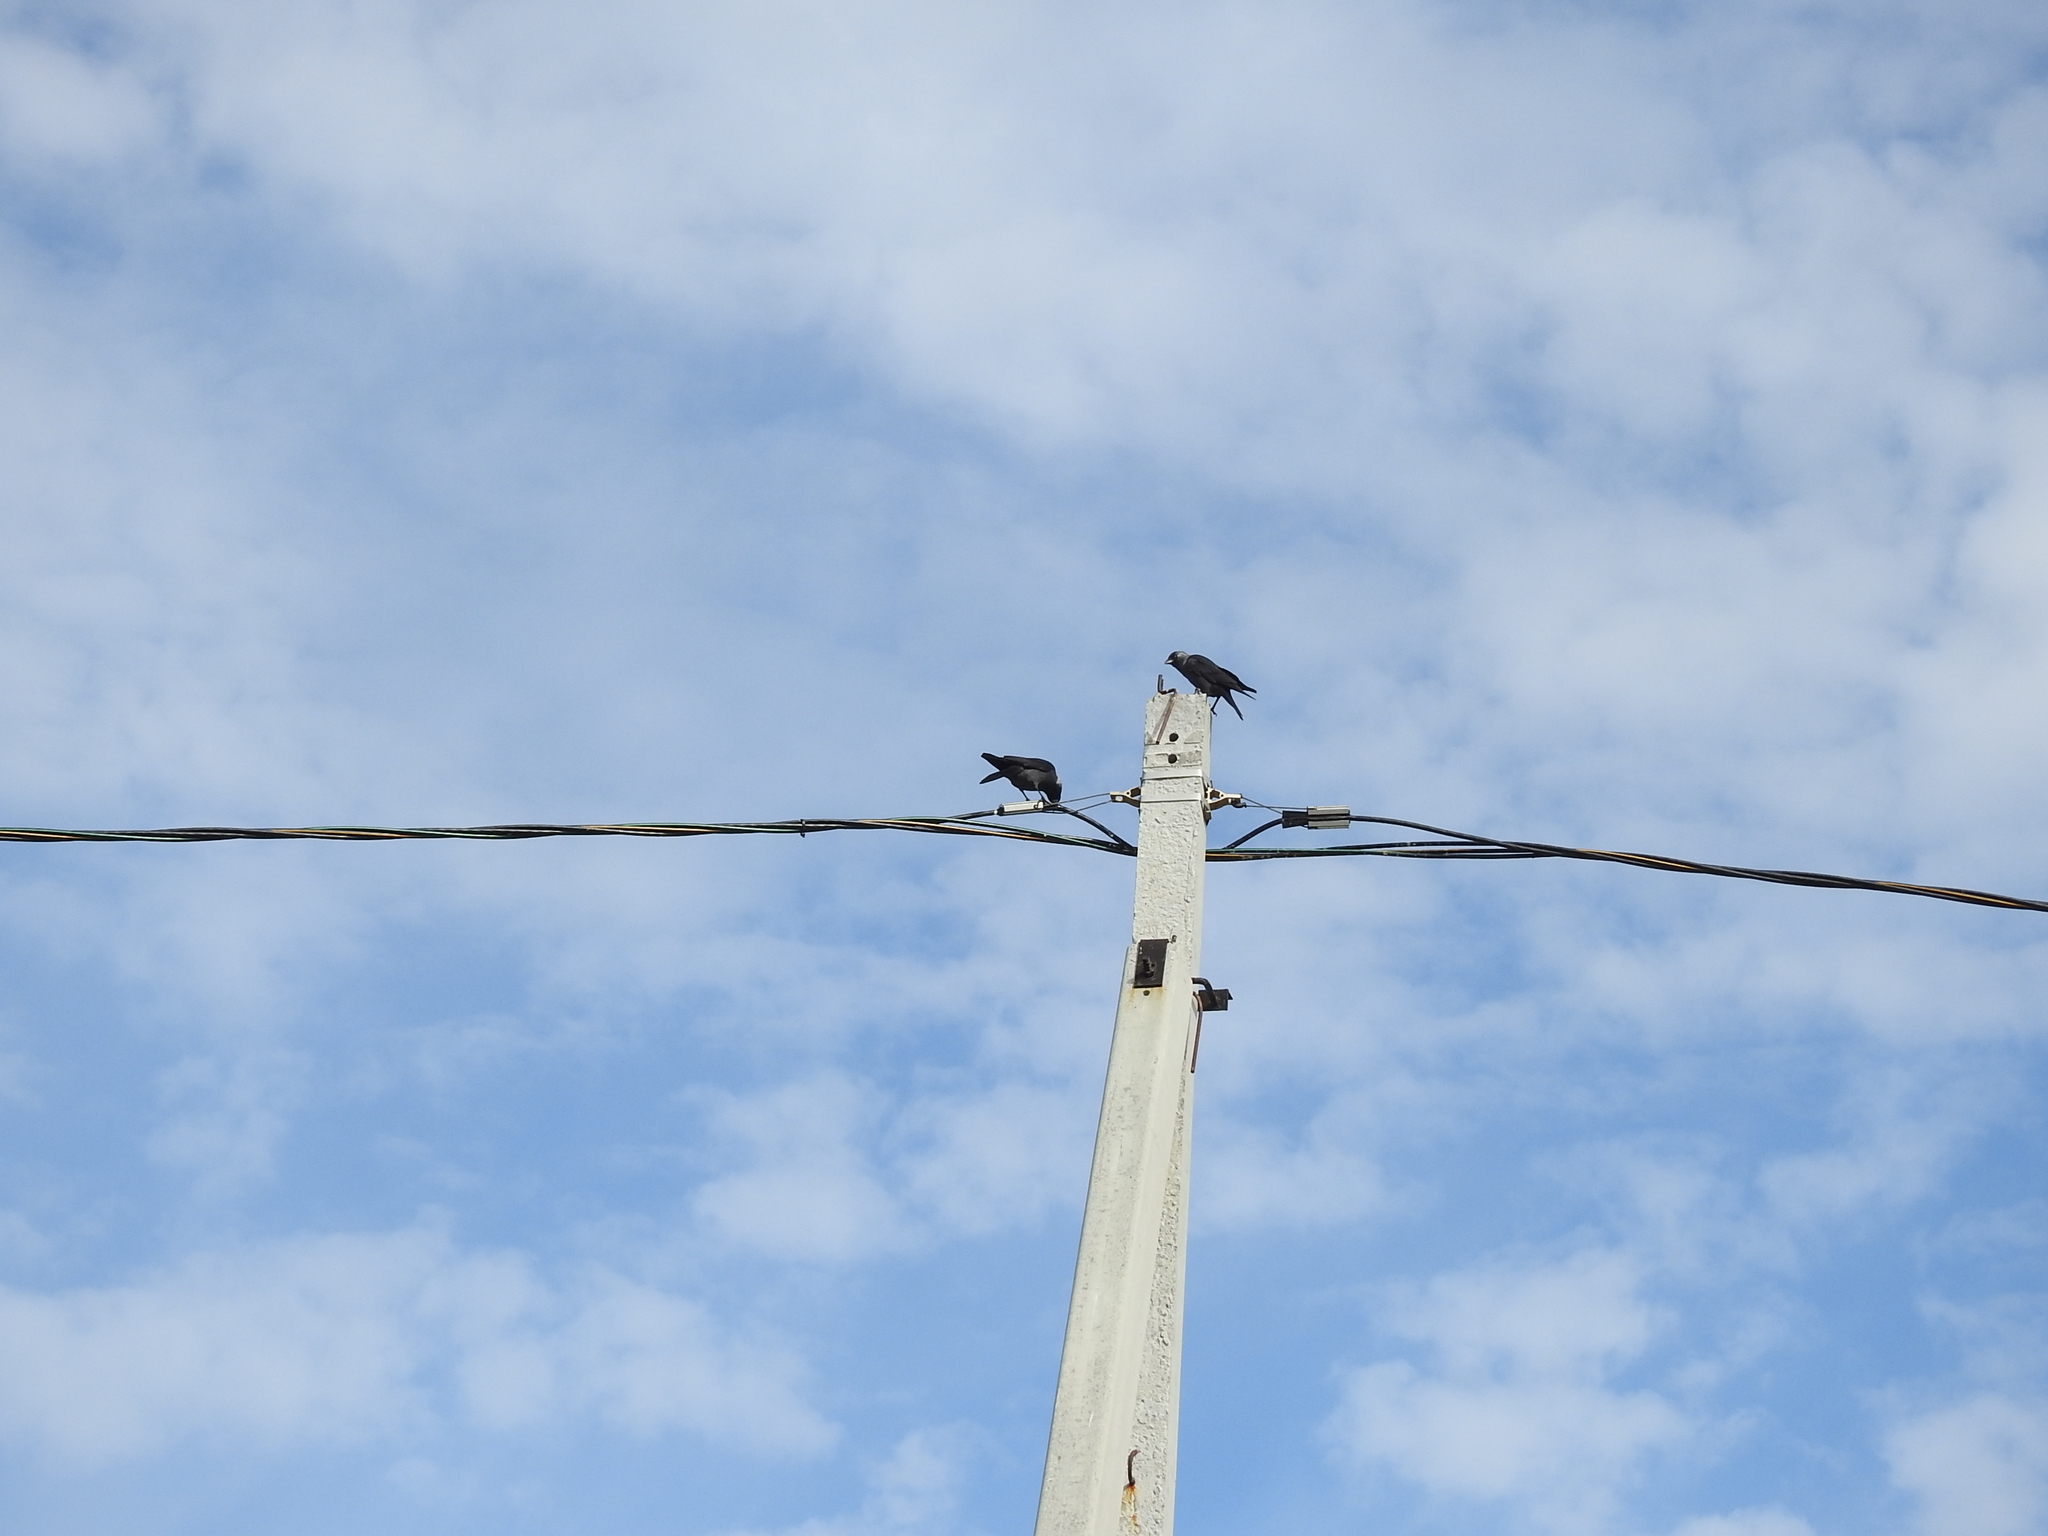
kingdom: Animalia
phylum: Chordata
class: Aves
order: Passeriformes
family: Corvidae
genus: Coloeus
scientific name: Coloeus monedula
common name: Western jackdaw
